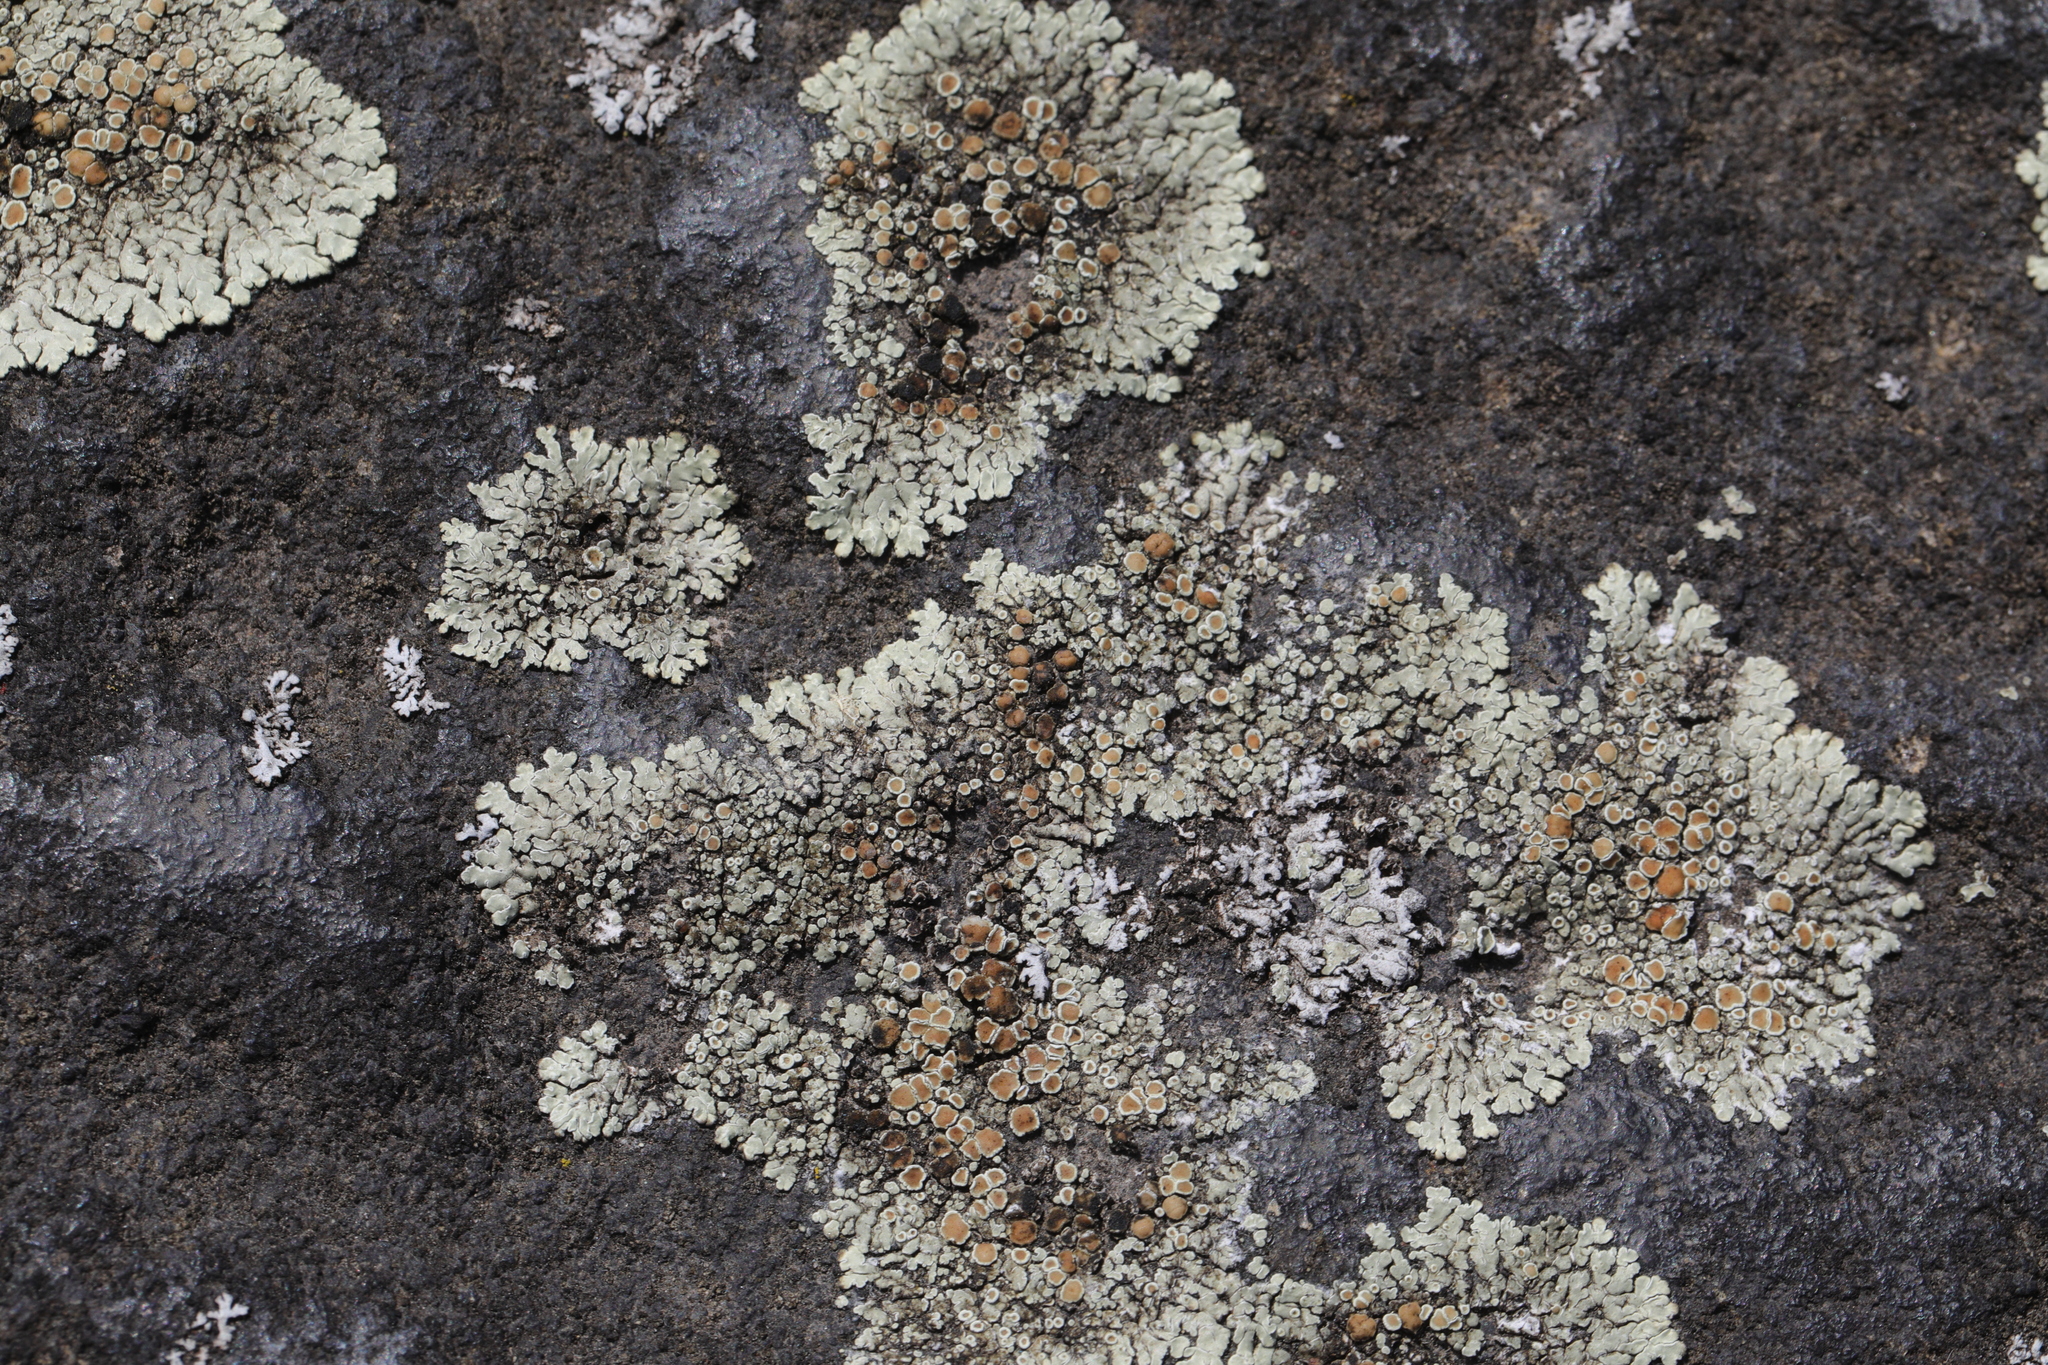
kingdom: Fungi
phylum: Ascomycota
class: Lecanoromycetes
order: Lecanorales
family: Lecanoraceae
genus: Protoparmeliopsis
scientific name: Protoparmeliopsis muralis
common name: Stonewall rim lichen
